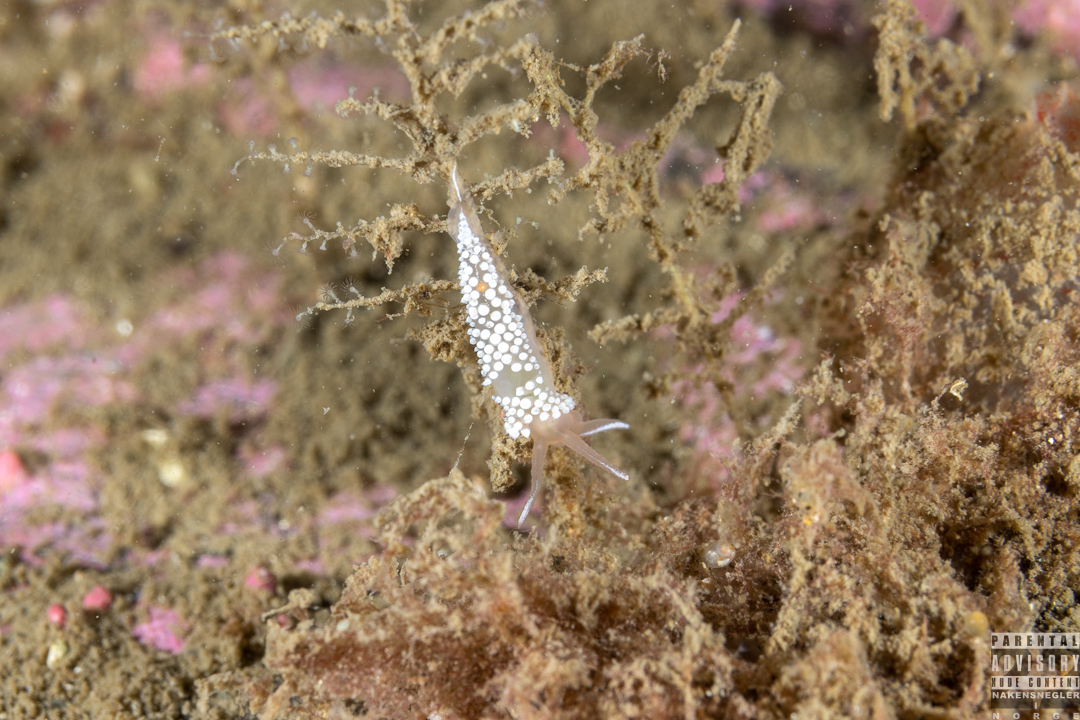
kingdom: Animalia
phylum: Mollusca
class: Gastropoda
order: Nudibranchia
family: Coryphellidae
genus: Coryphella
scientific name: Coryphella verrucosa
